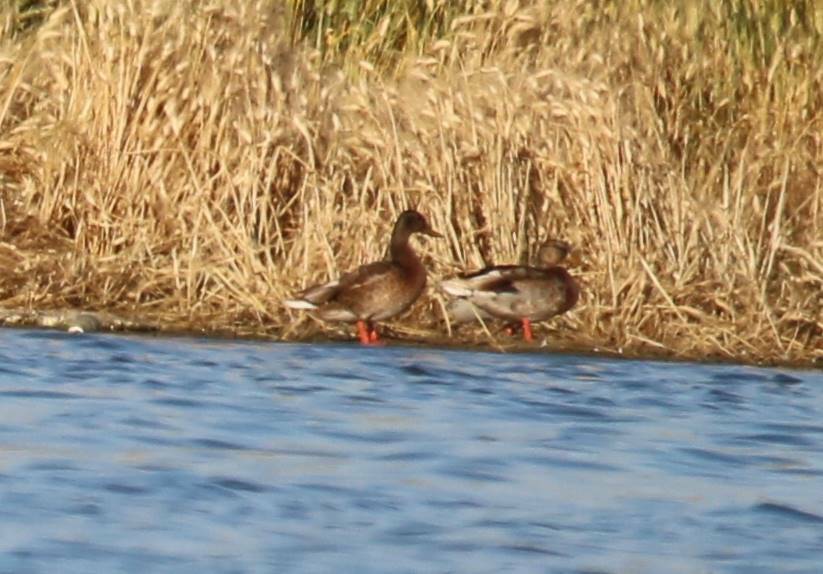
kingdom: Animalia
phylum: Chordata
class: Aves
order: Anseriformes
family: Anatidae
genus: Anas
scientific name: Anas platyrhynchos
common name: Mallard
